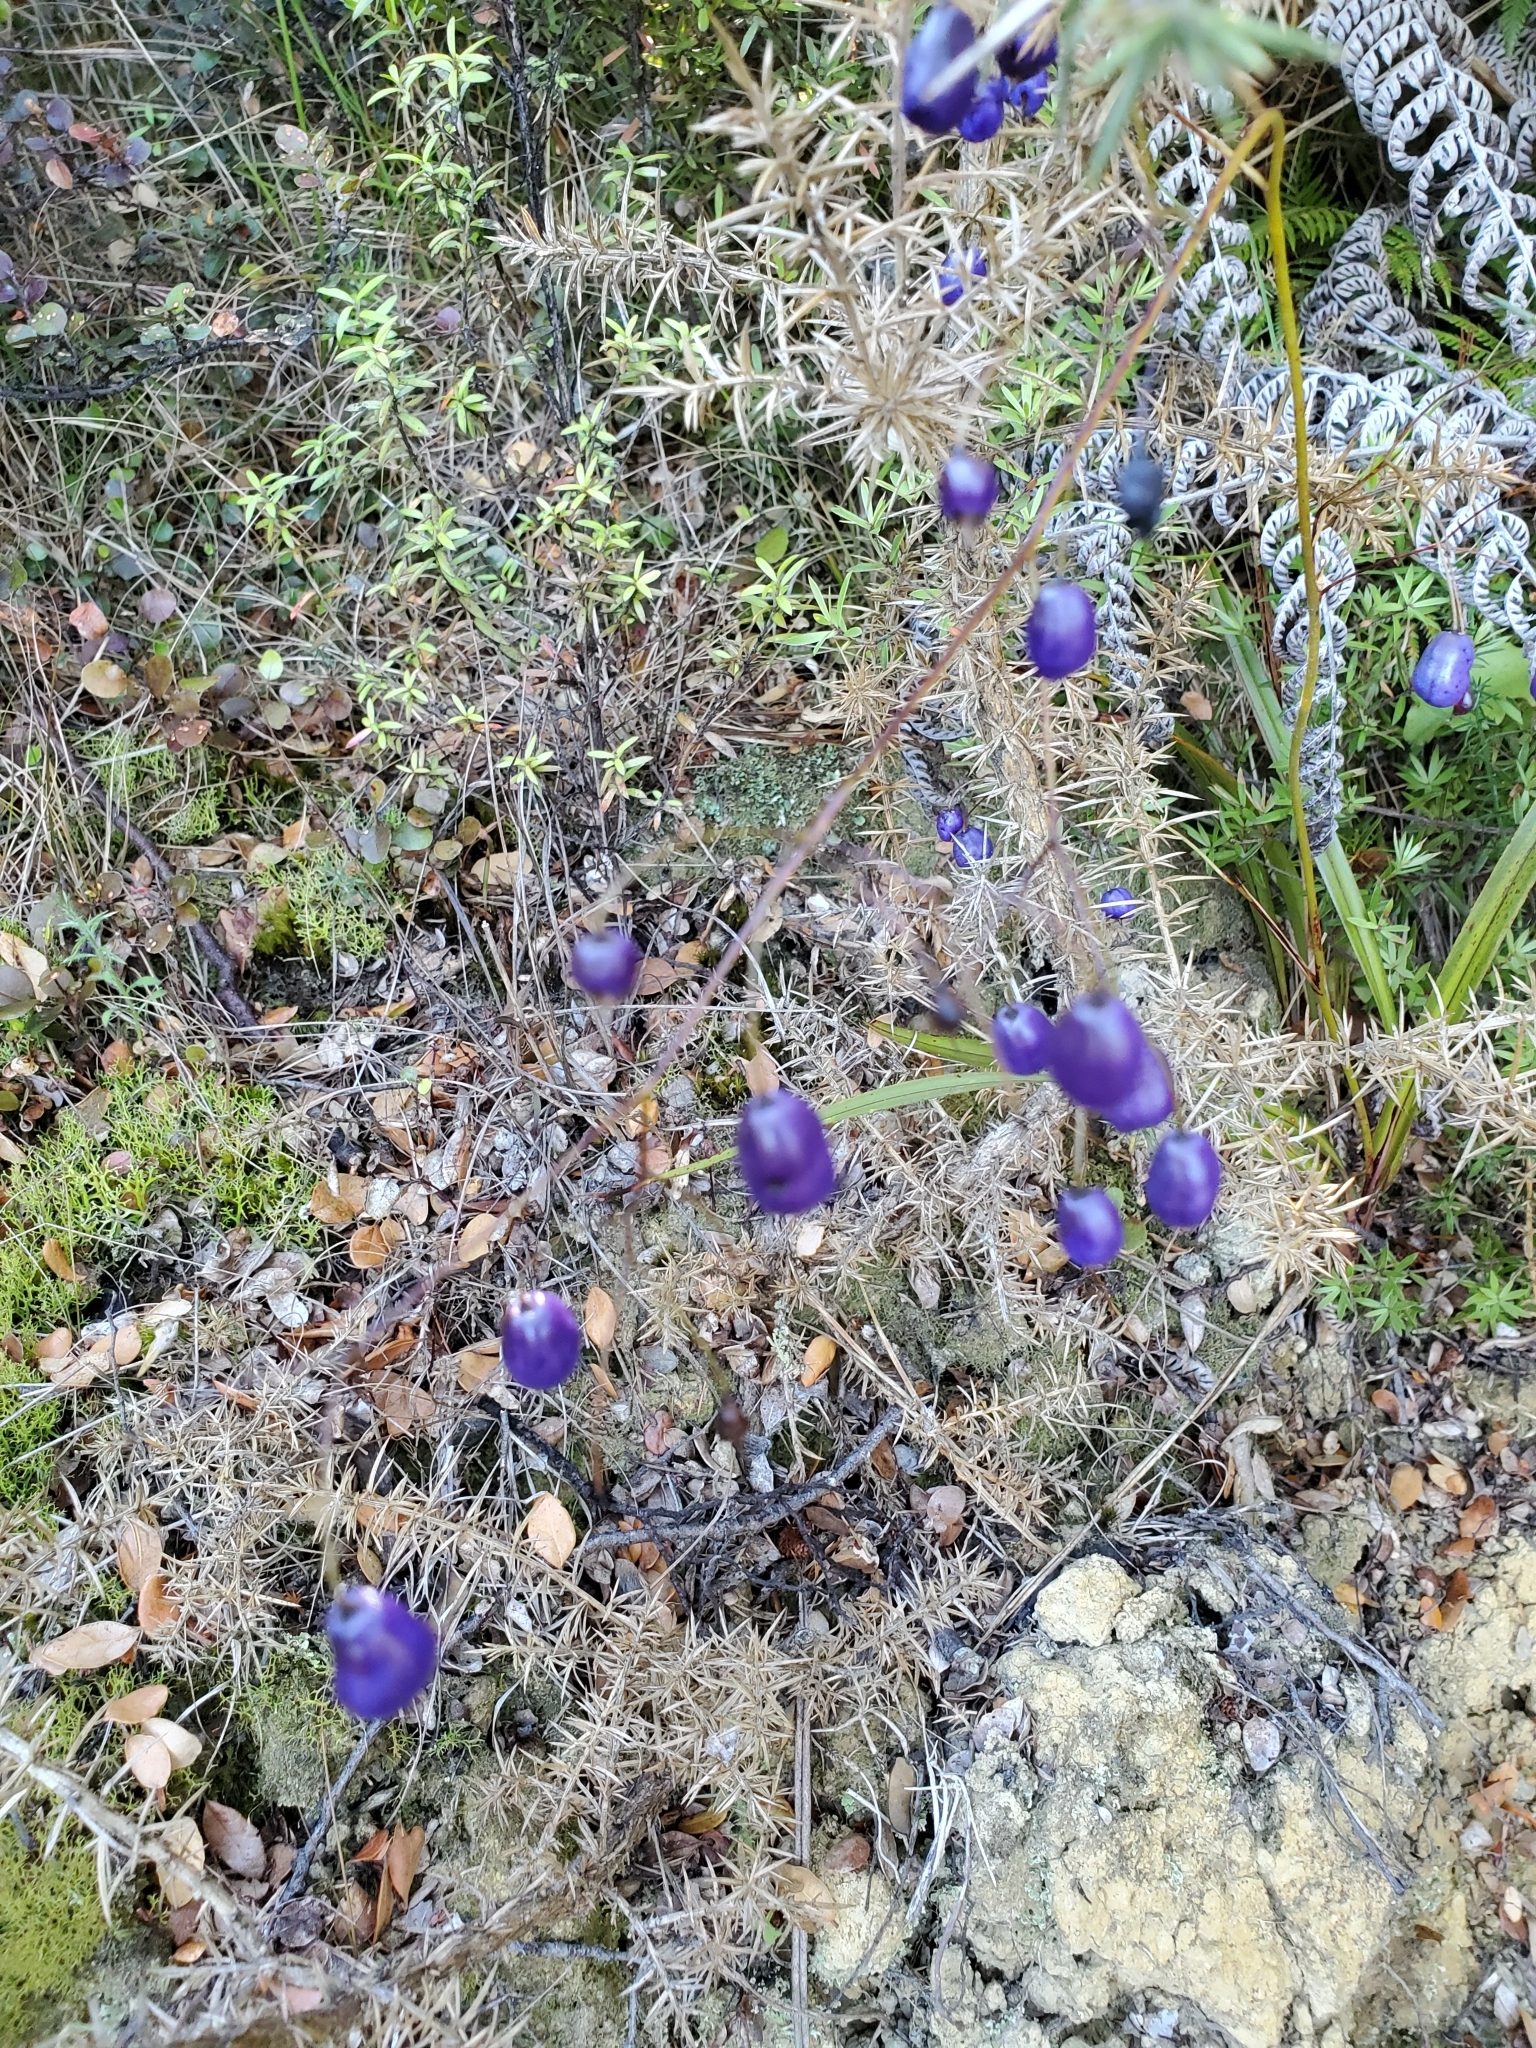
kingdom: Plantae
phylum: Tracheophyta
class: Liliopsida
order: Asparagales
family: Asphodelaceae
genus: Dianella
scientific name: Dianella nigra
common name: New zealand-blueberry
